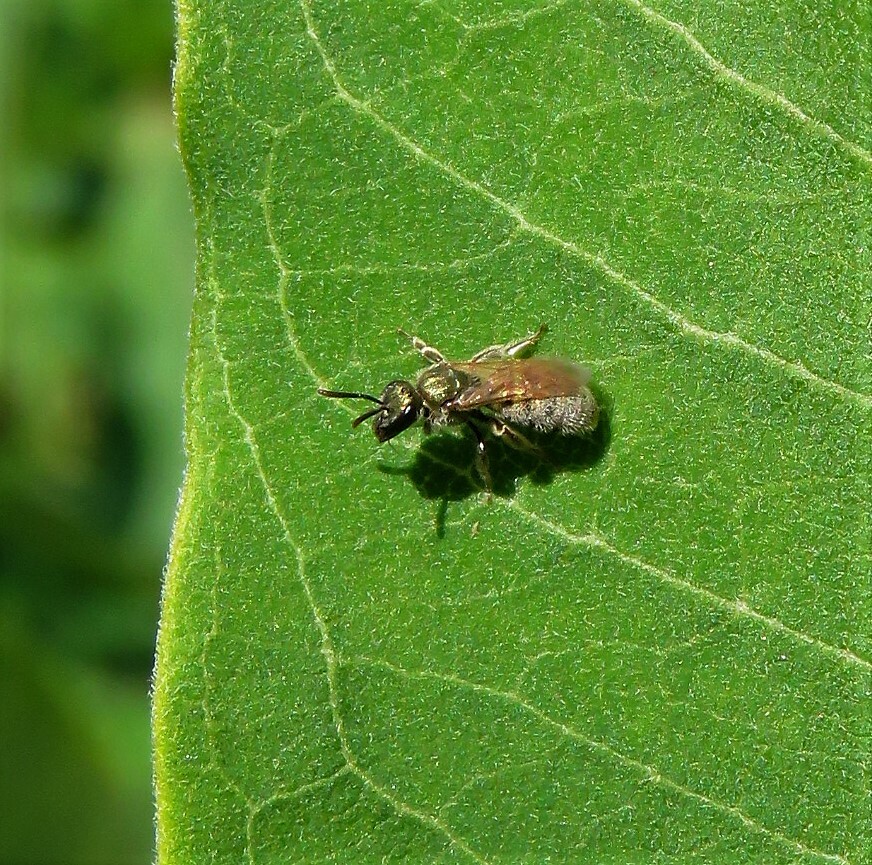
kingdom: Animalia
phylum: Arthropoda
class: Insecta
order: Hymenoptera
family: Halictidae
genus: Lasioglossum
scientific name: Lasioglossum
